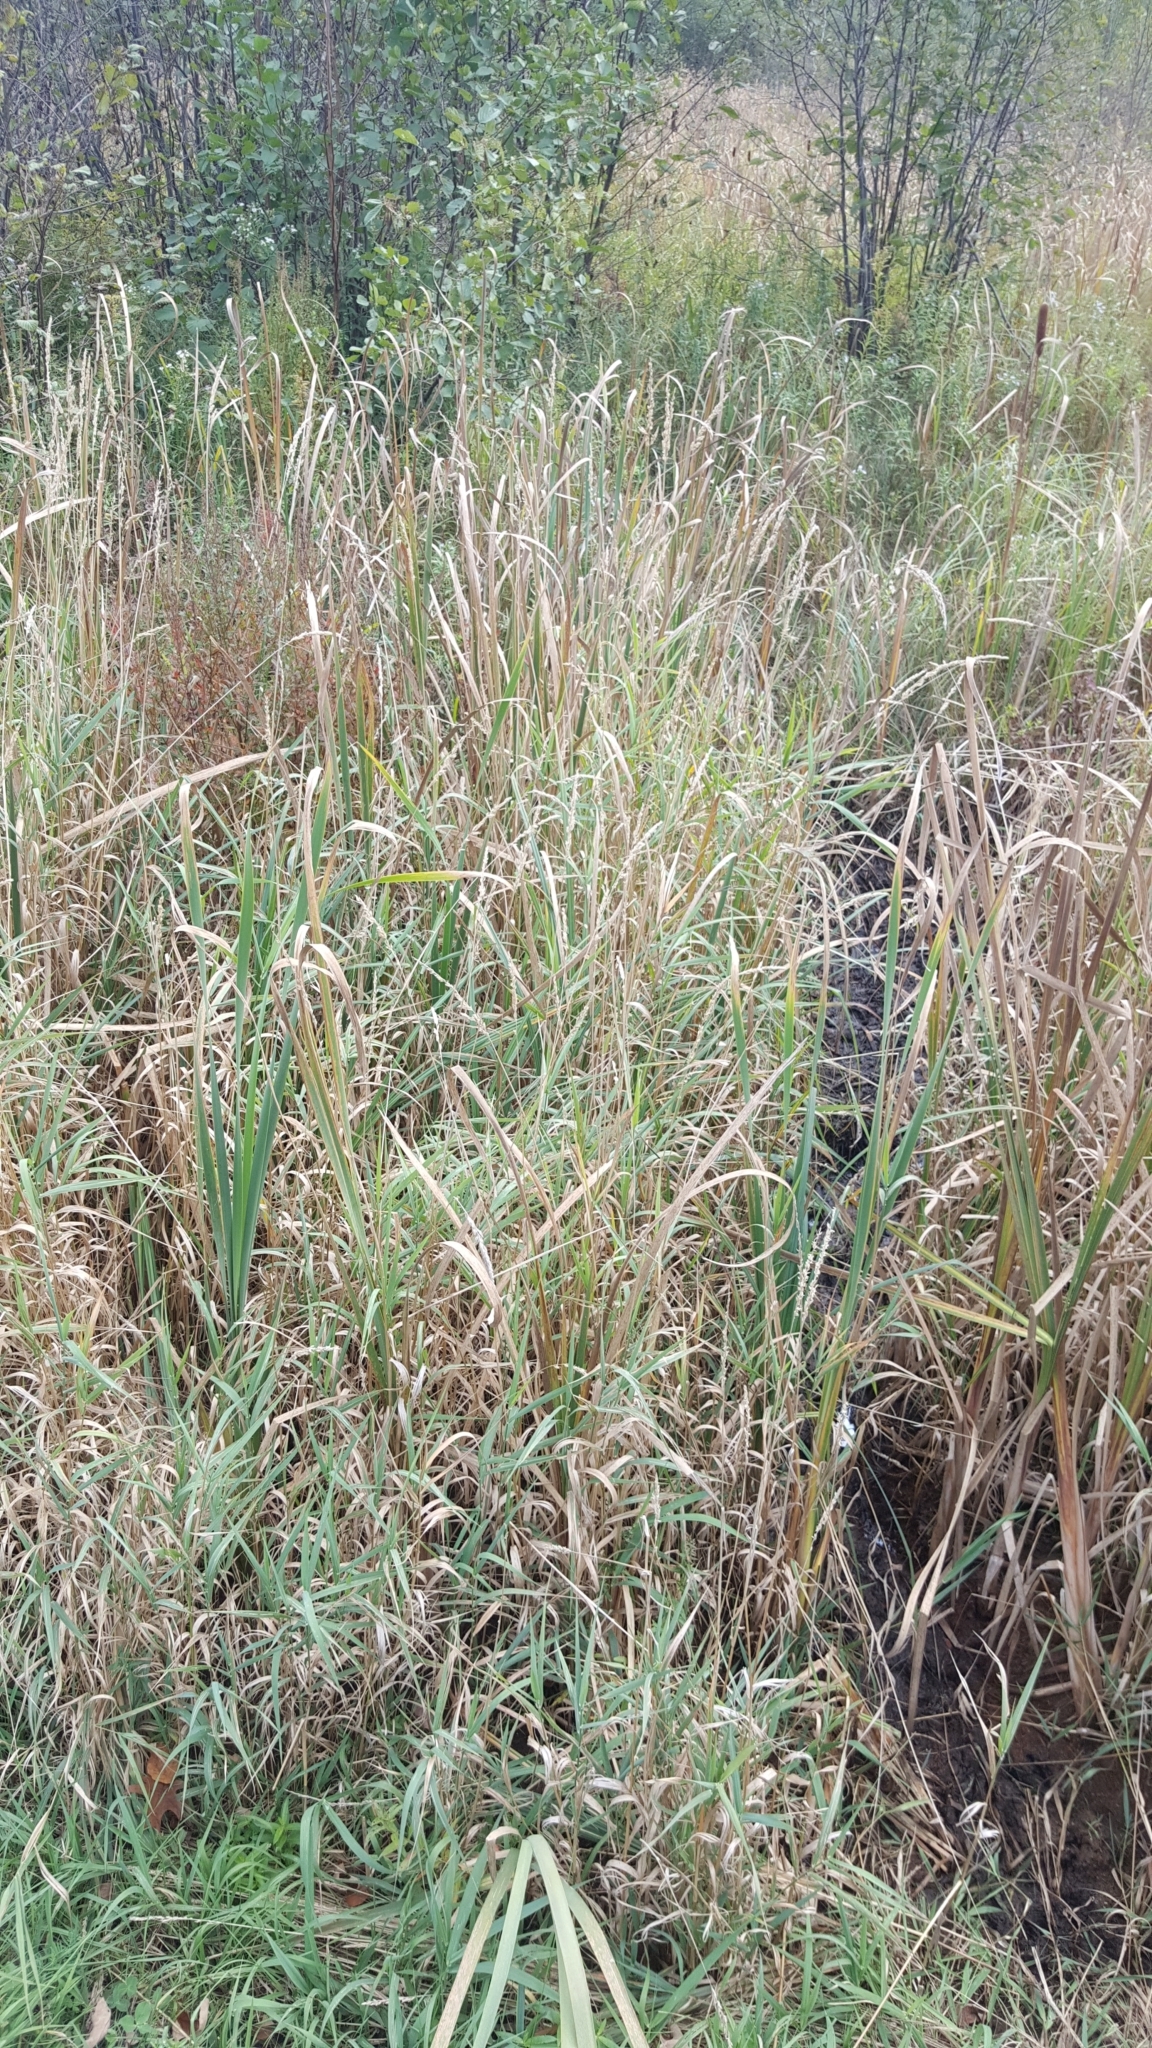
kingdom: Plantae
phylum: Tracheophyta
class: Liliopsida
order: Poales
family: Poaceae
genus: Phalaris
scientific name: Phalaris arundinacea
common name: Reed canary-grass
